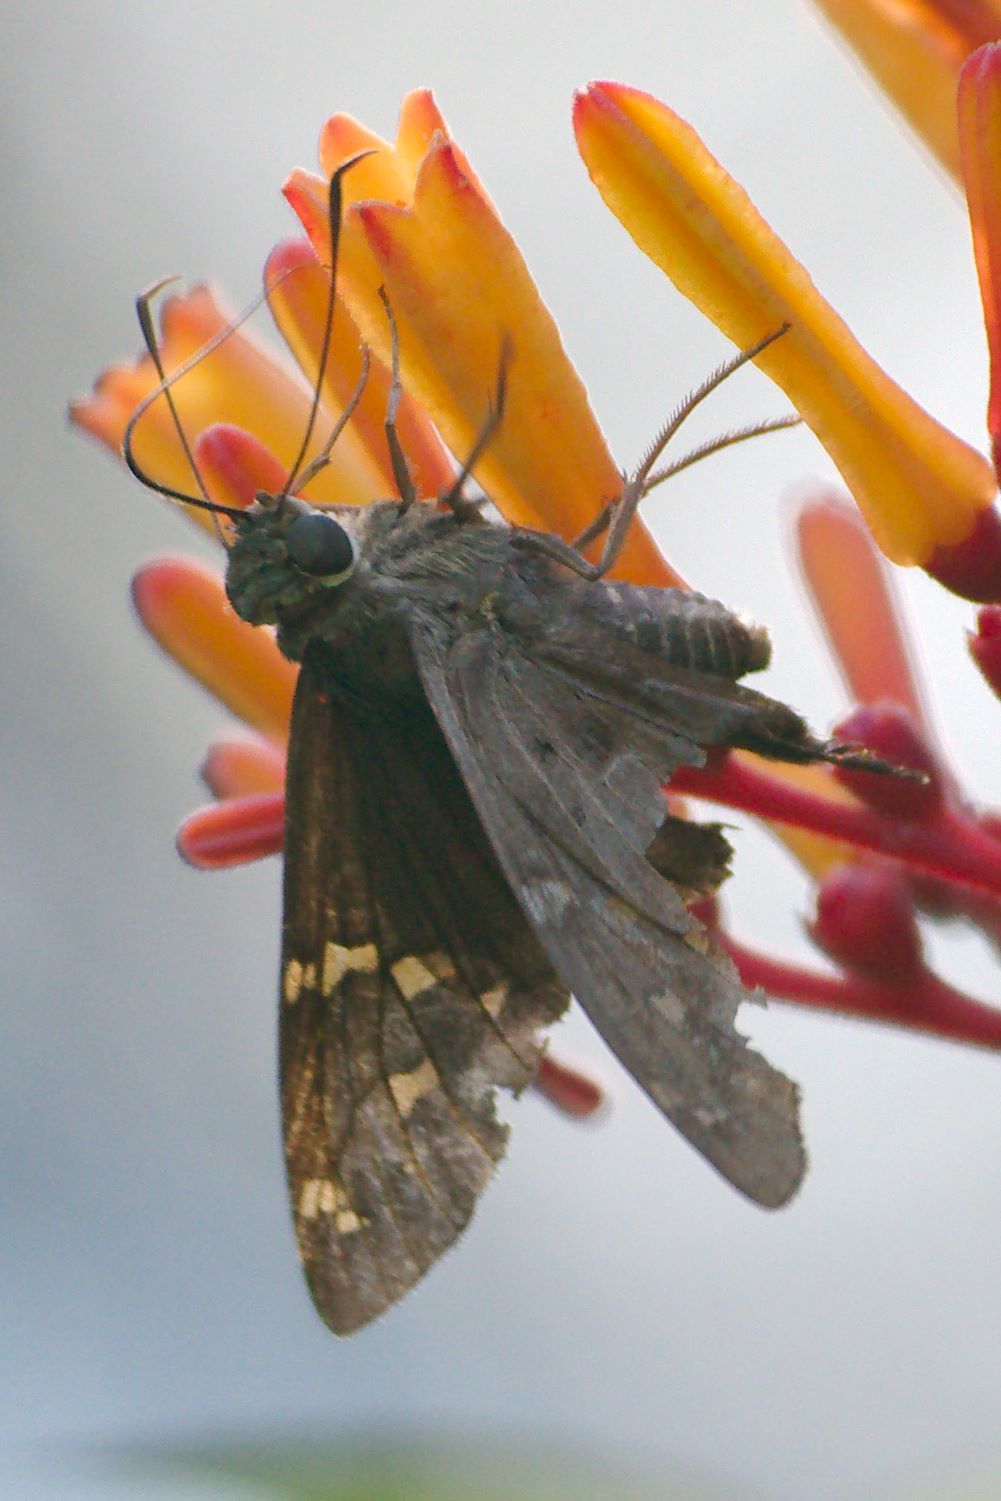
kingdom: Animalia
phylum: Arthropoda
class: Insecta
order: Lepidoptera
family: Hesperiidae
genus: Urbanus
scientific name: Urbanus proteus
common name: Long-tailed skipper
